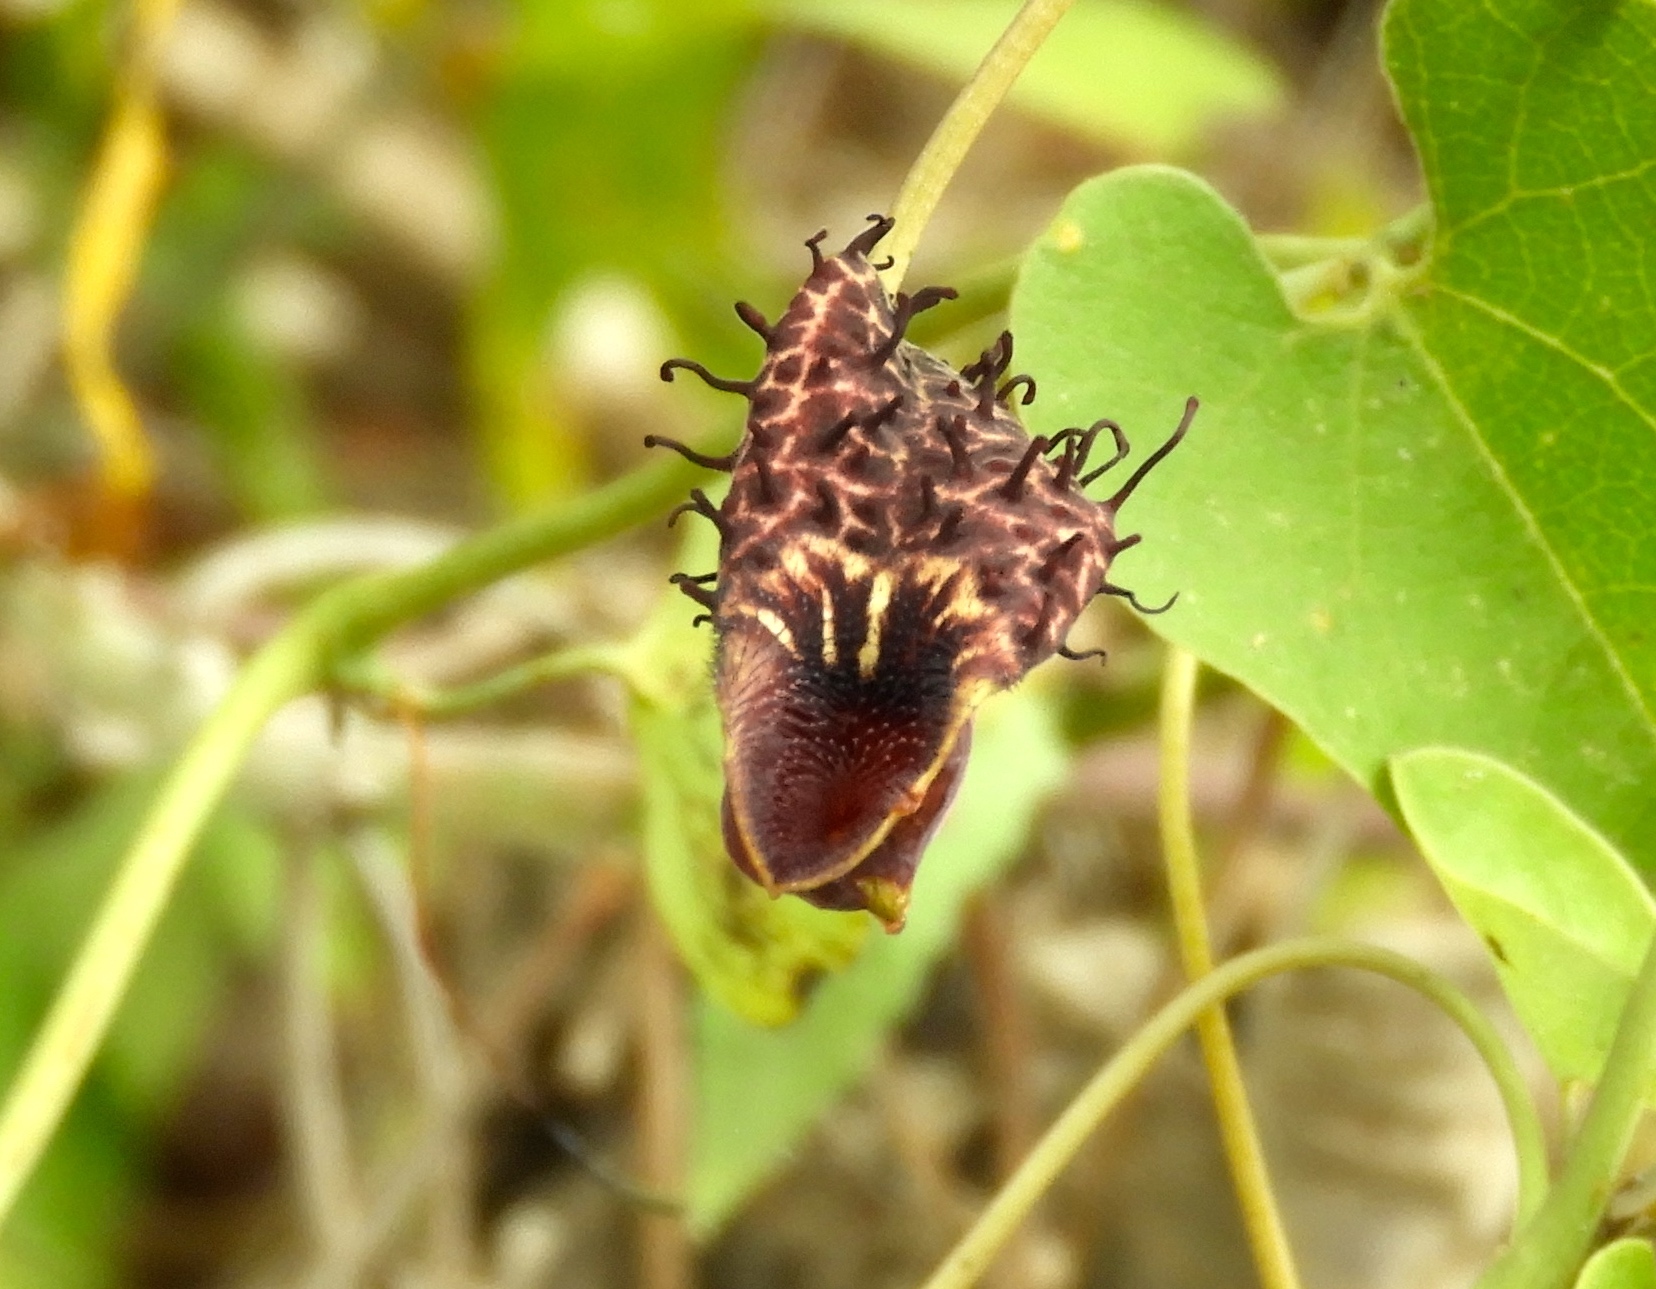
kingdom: Plantae
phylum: Tracheophyta
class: Magnoliopsida
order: Piperales
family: Aristolochiaceae
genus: Aristolochia
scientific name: Aristolochia taliscana
